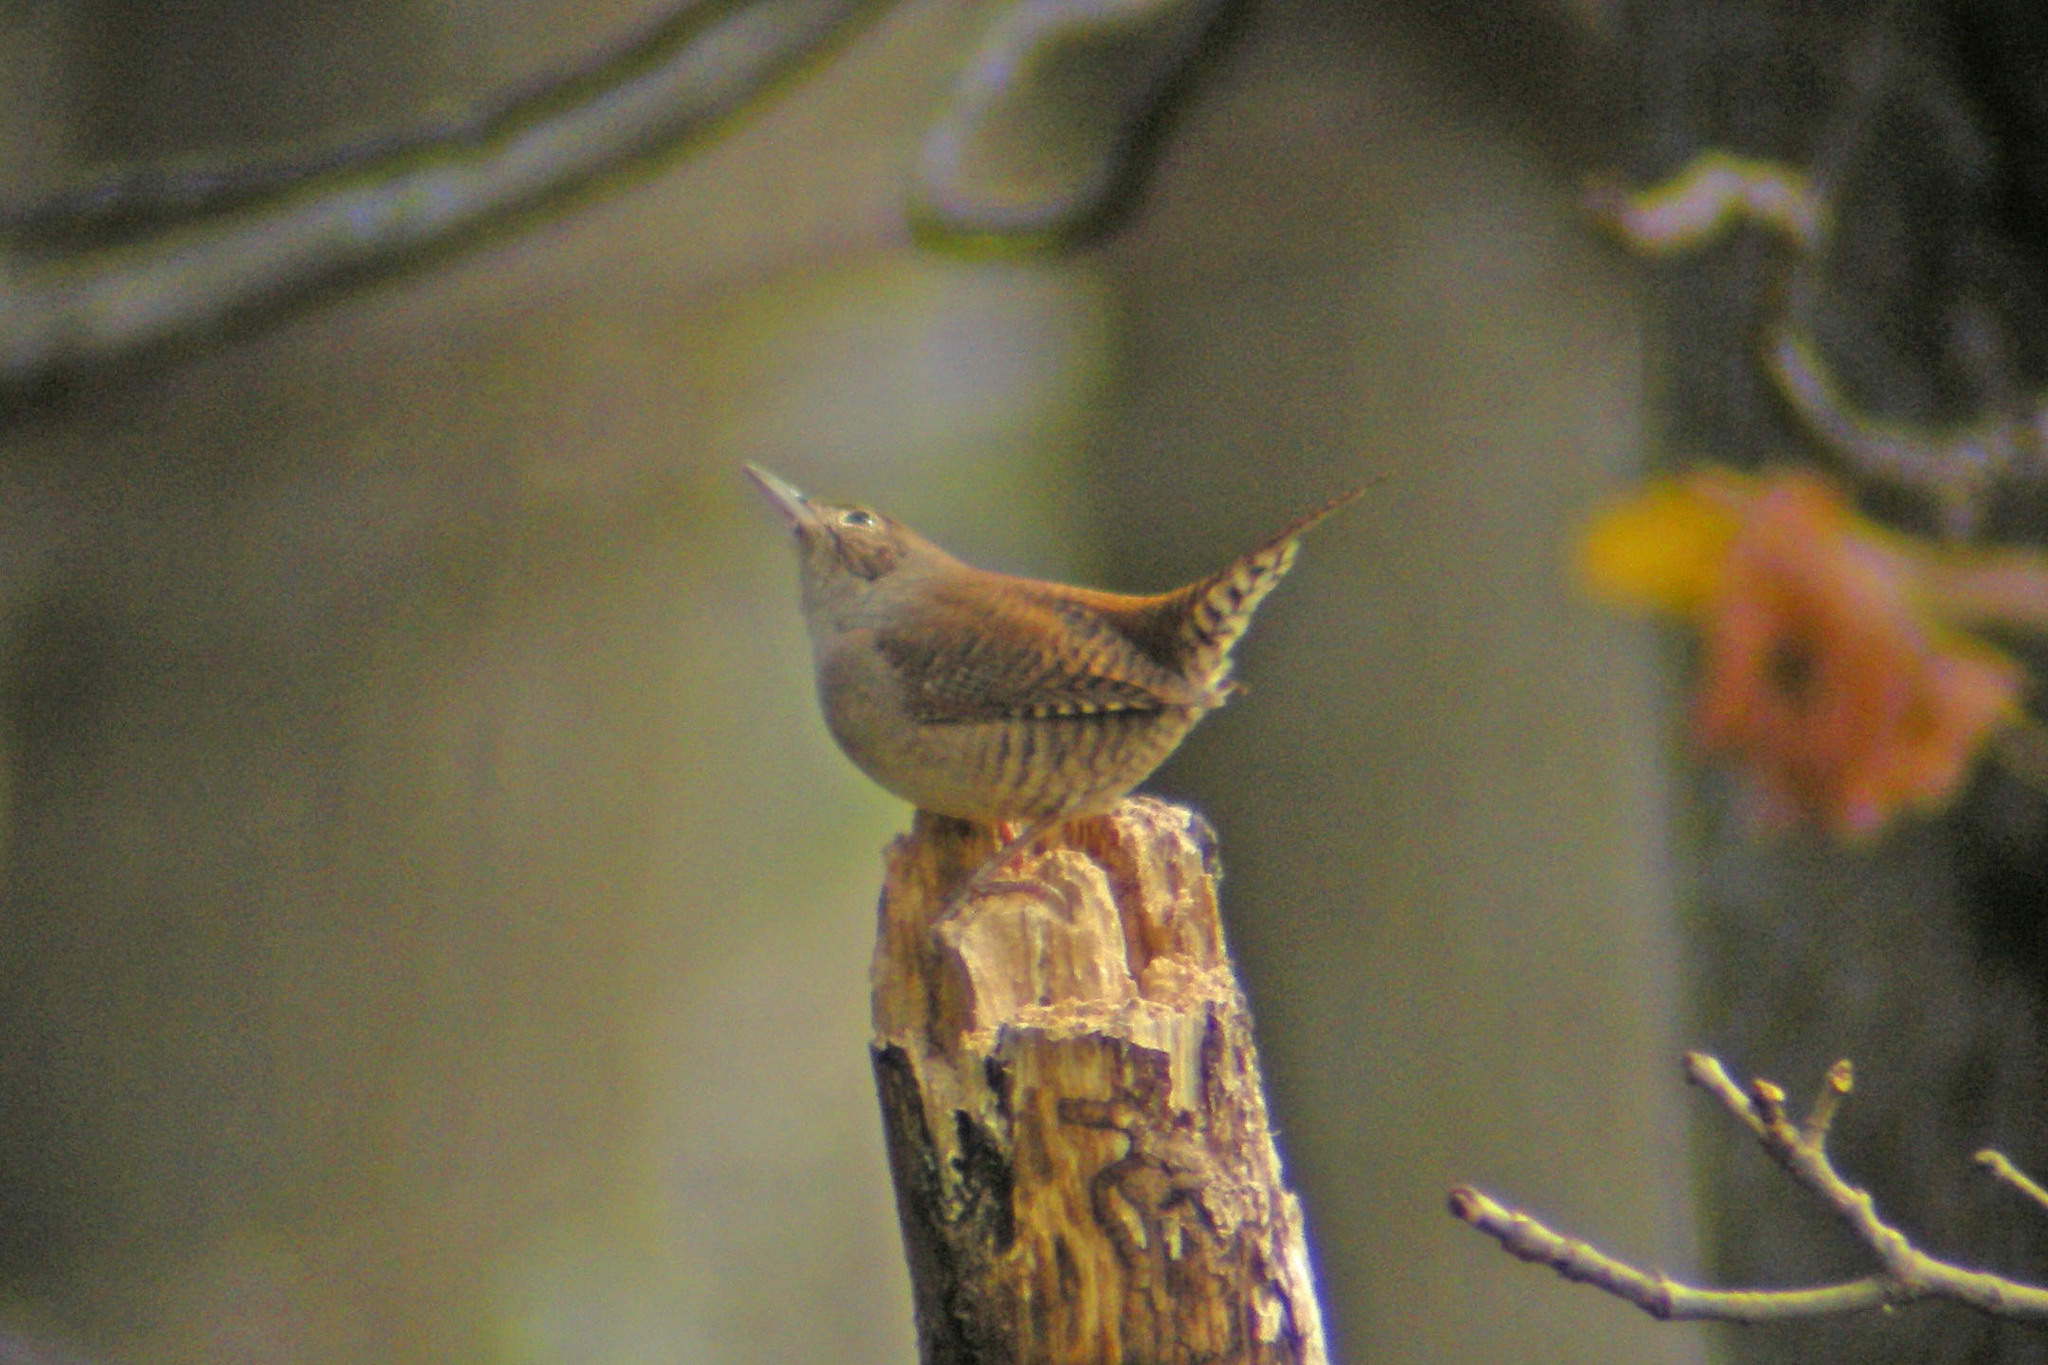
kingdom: Animalia
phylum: Chordata
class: Aves
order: Passeriformes
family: Troglodytidae
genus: Troglodytes
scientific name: Troglodytes aedon
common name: House wren
